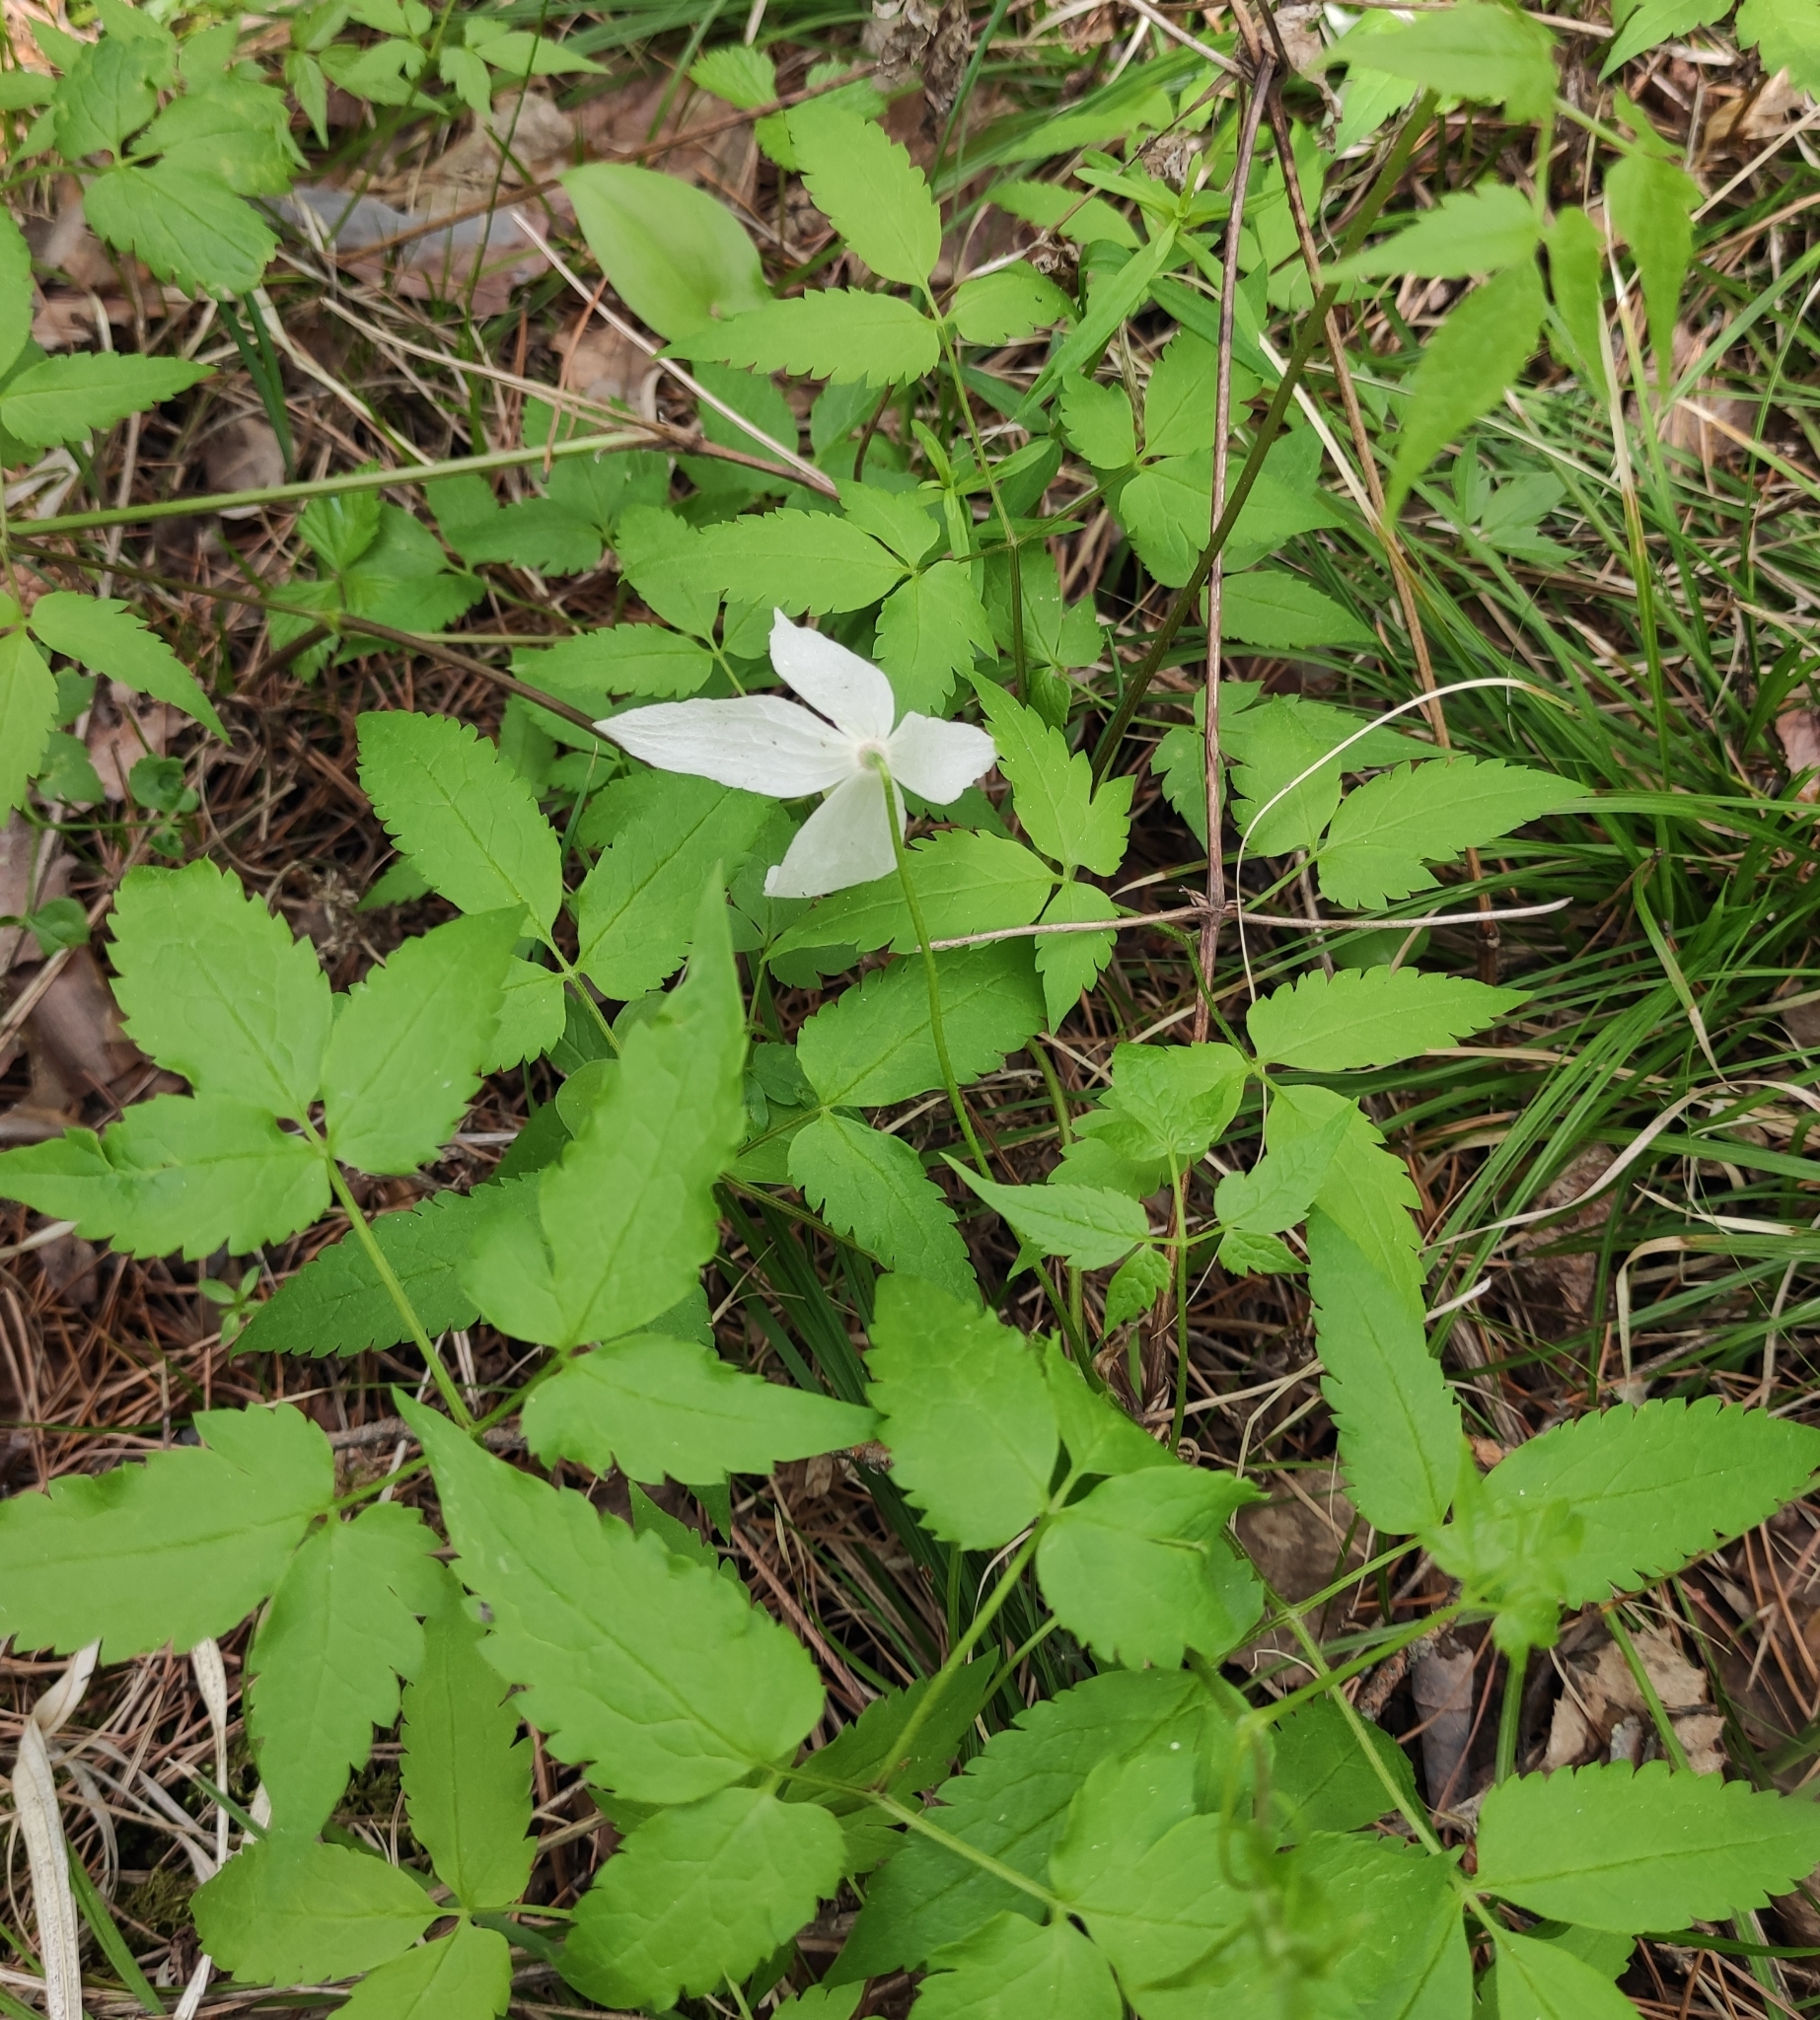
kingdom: Plantae
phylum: Tracheophyta
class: Magnoliopsida
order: Ranunculales
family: Ranunculaceae
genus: Clematis
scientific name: Clematis sibirica
